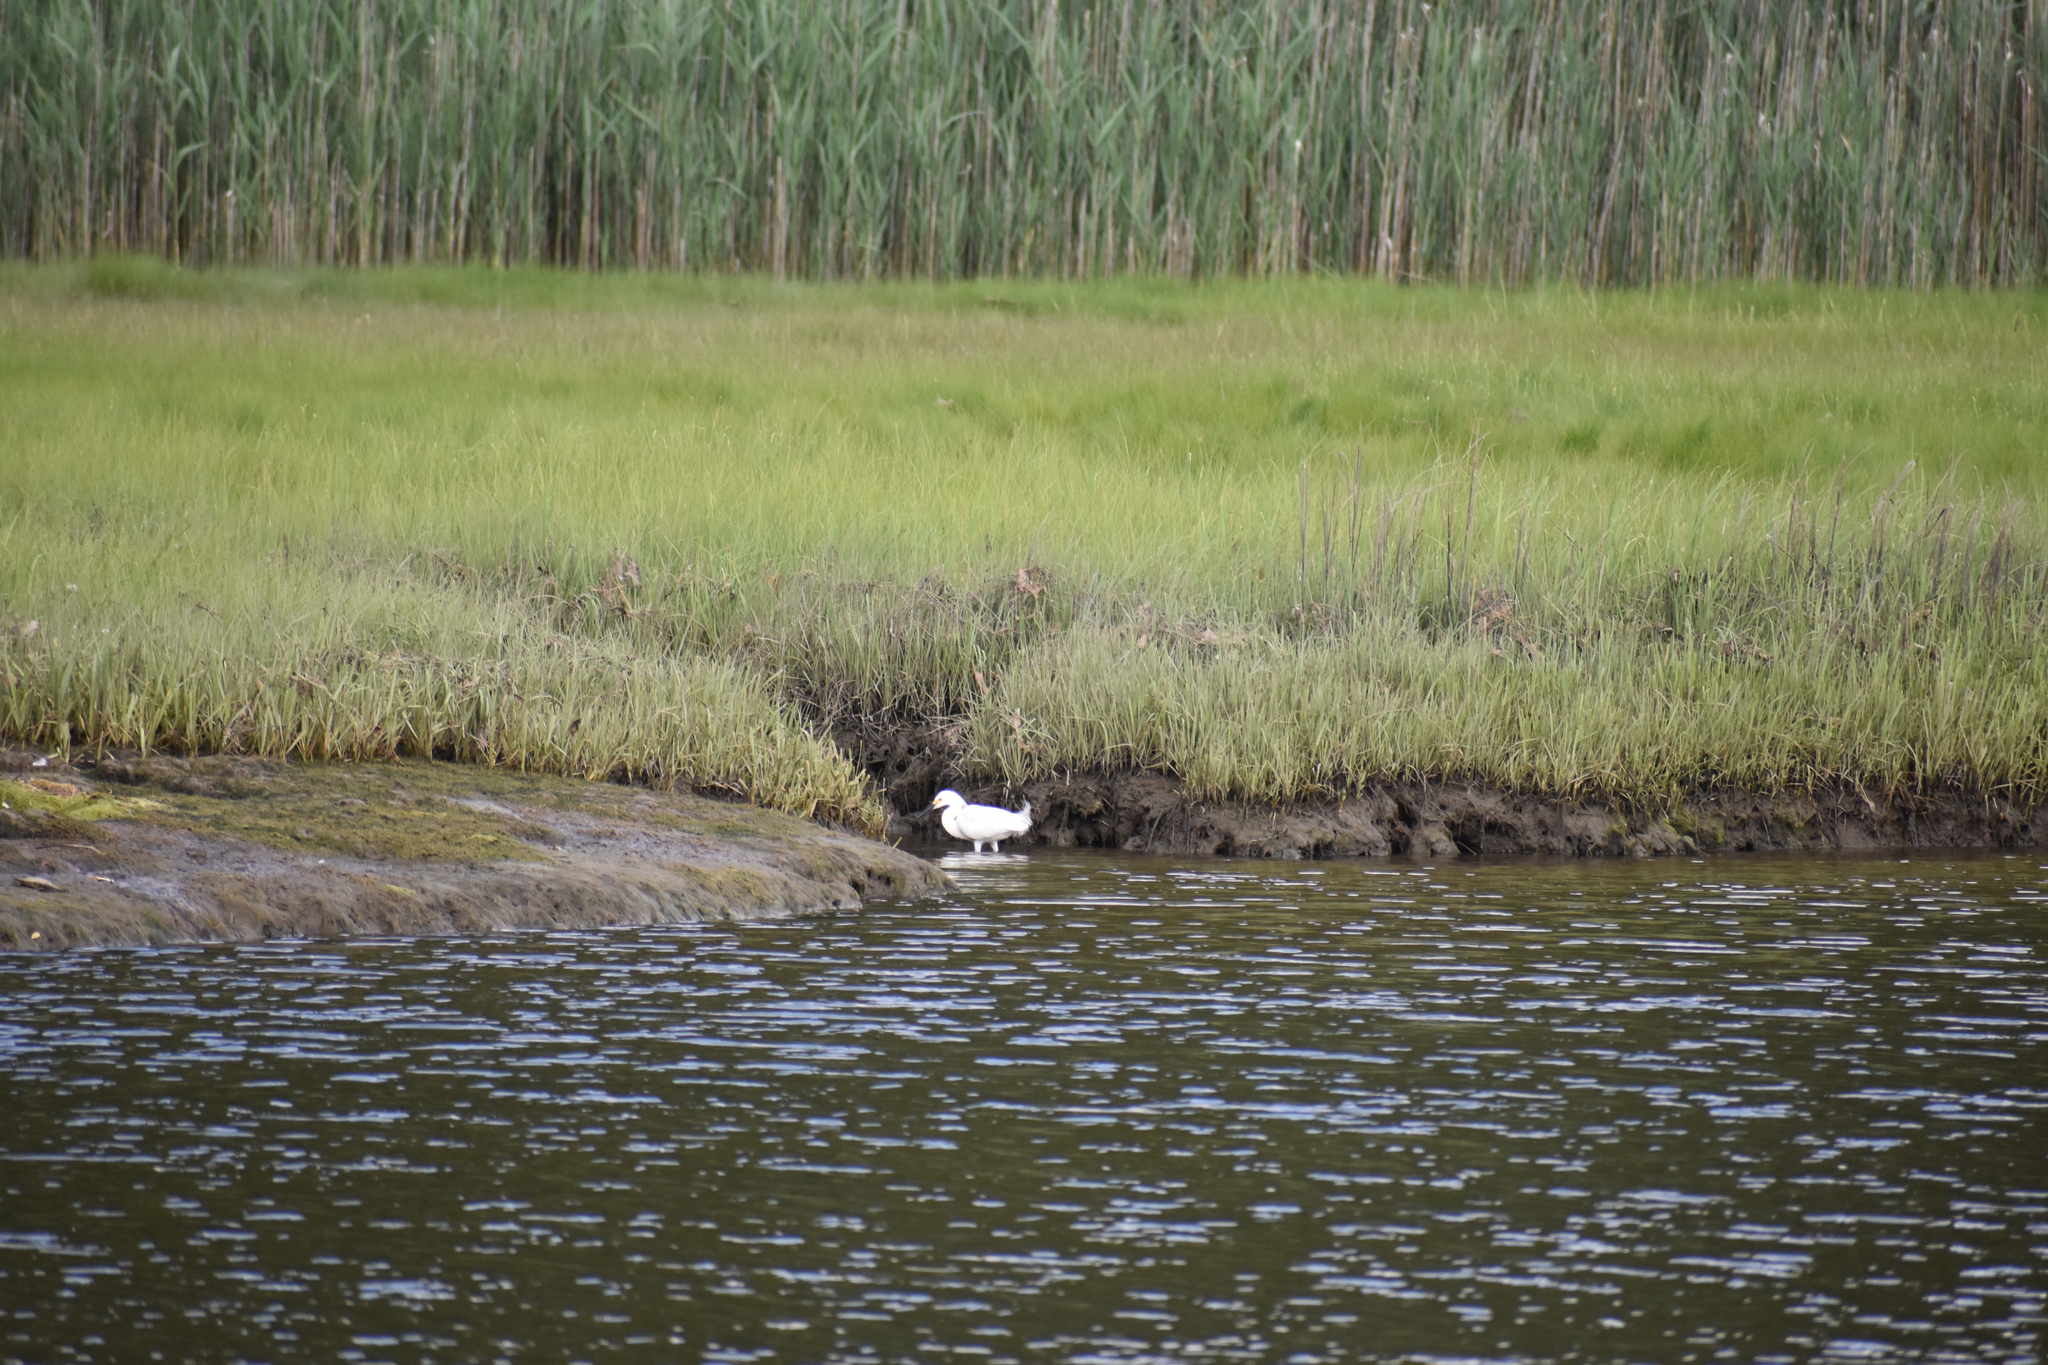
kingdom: Animalia
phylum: Chordata
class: Aves
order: Pelecaniformes
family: Ardeidae
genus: Egretta
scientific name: Egretta thula
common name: Snowy egret
